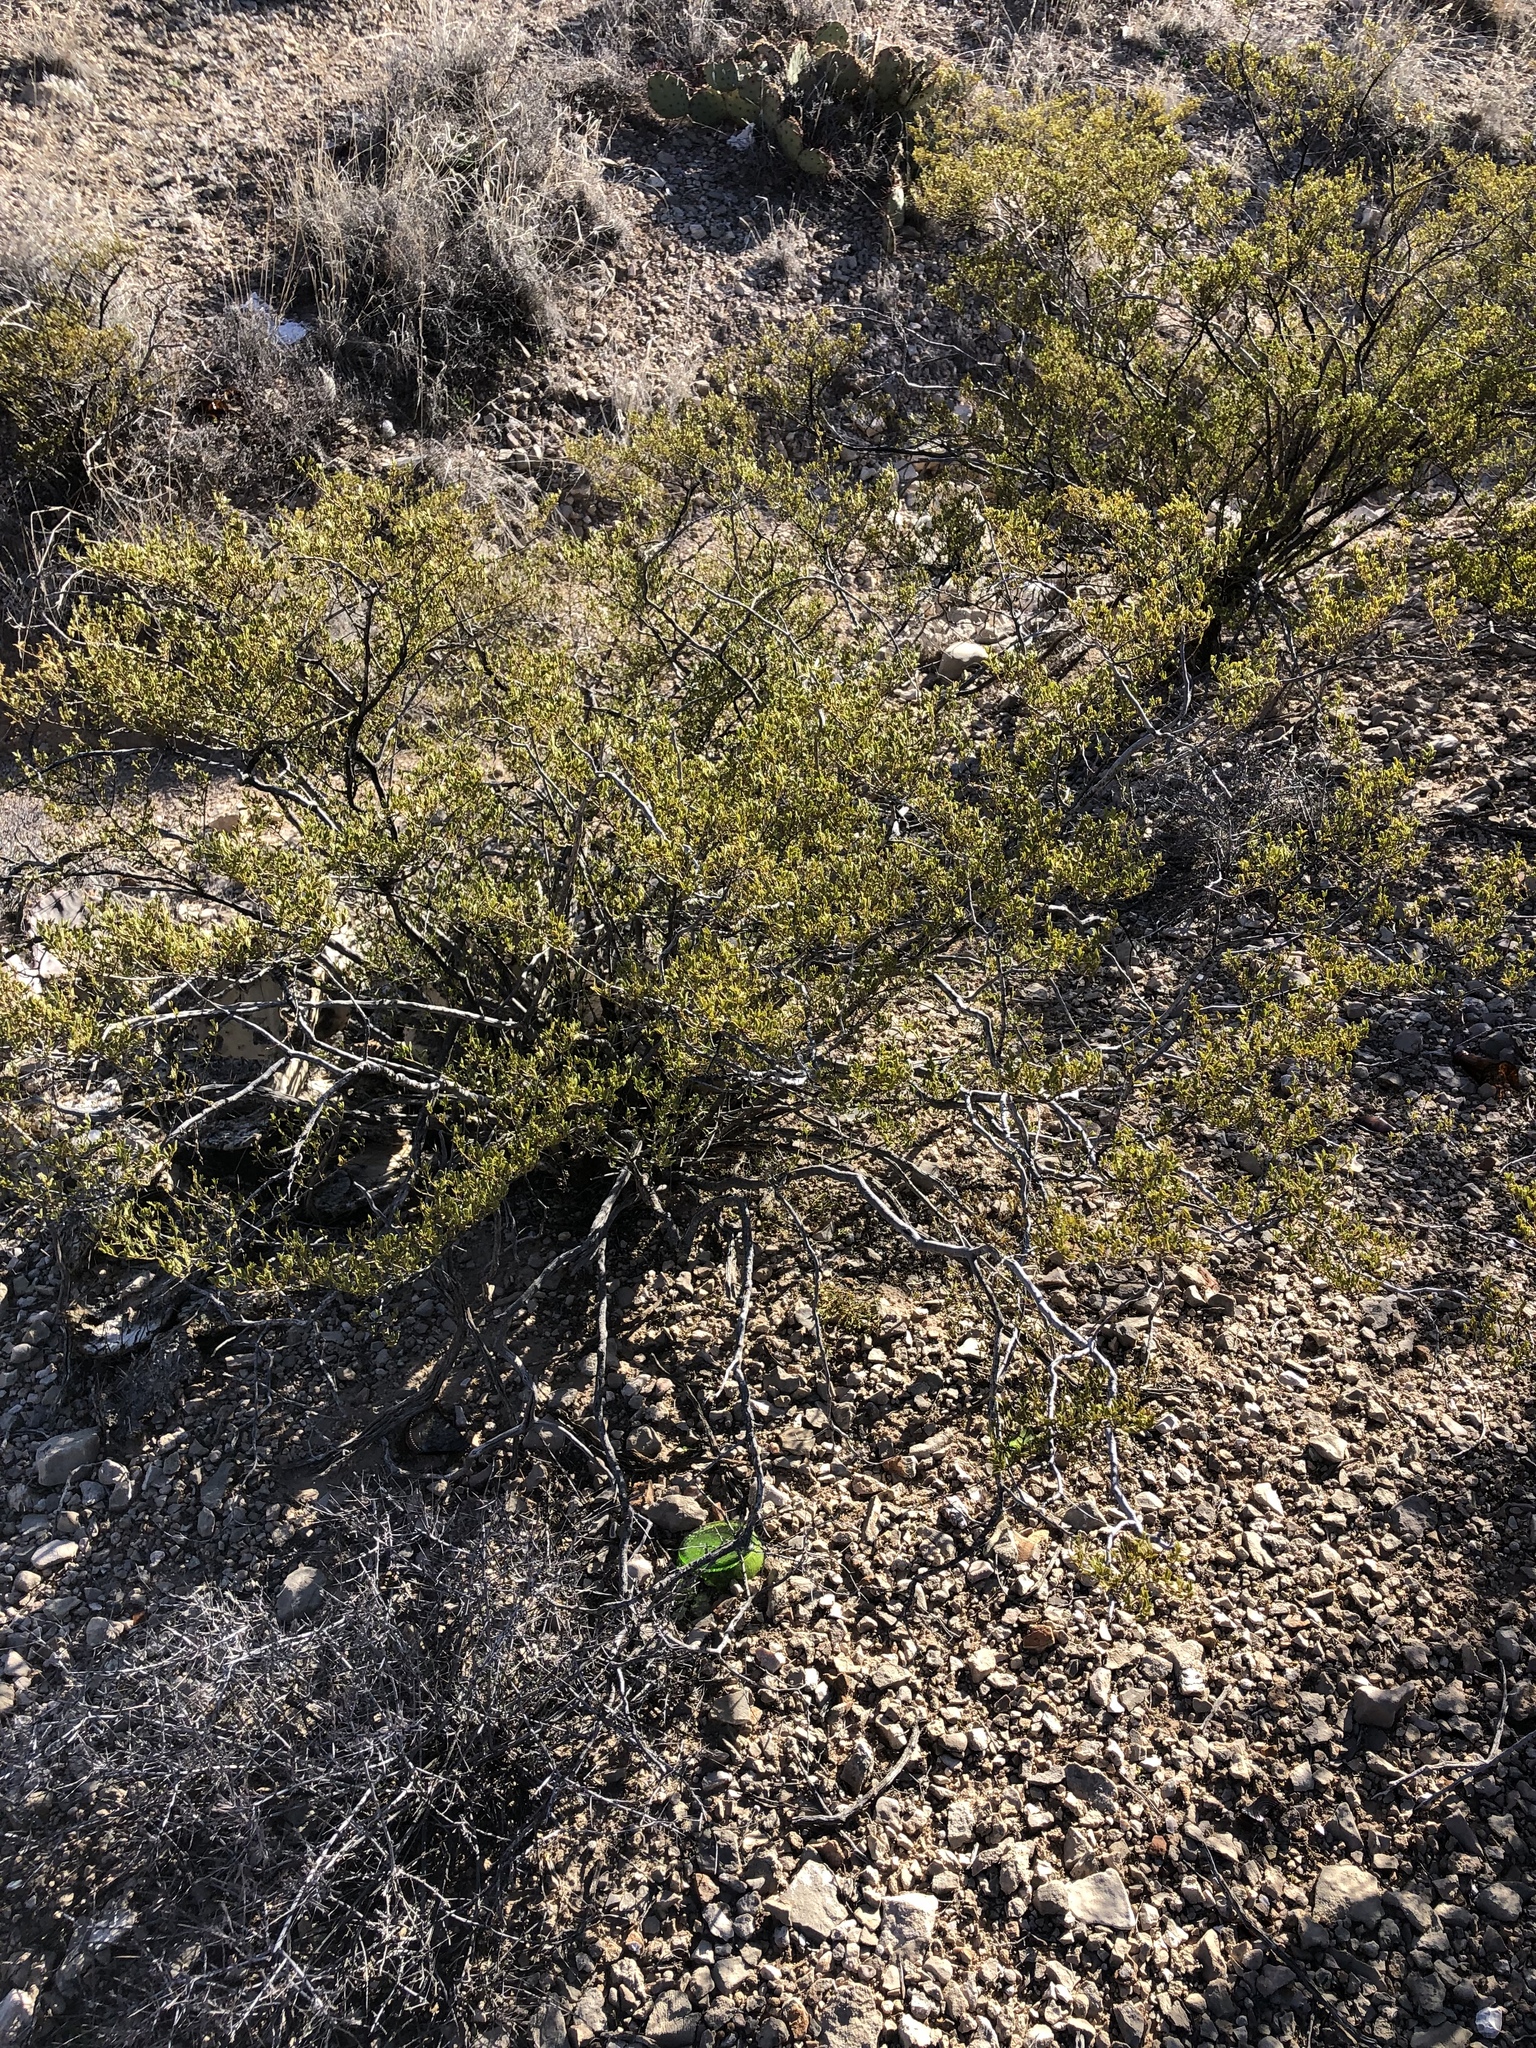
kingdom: Plantae
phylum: Tracheophyta
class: Magnoliopsida
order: Zygophyllales
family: Zygophyllaceae
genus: Larrea
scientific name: Larrea tridentata
